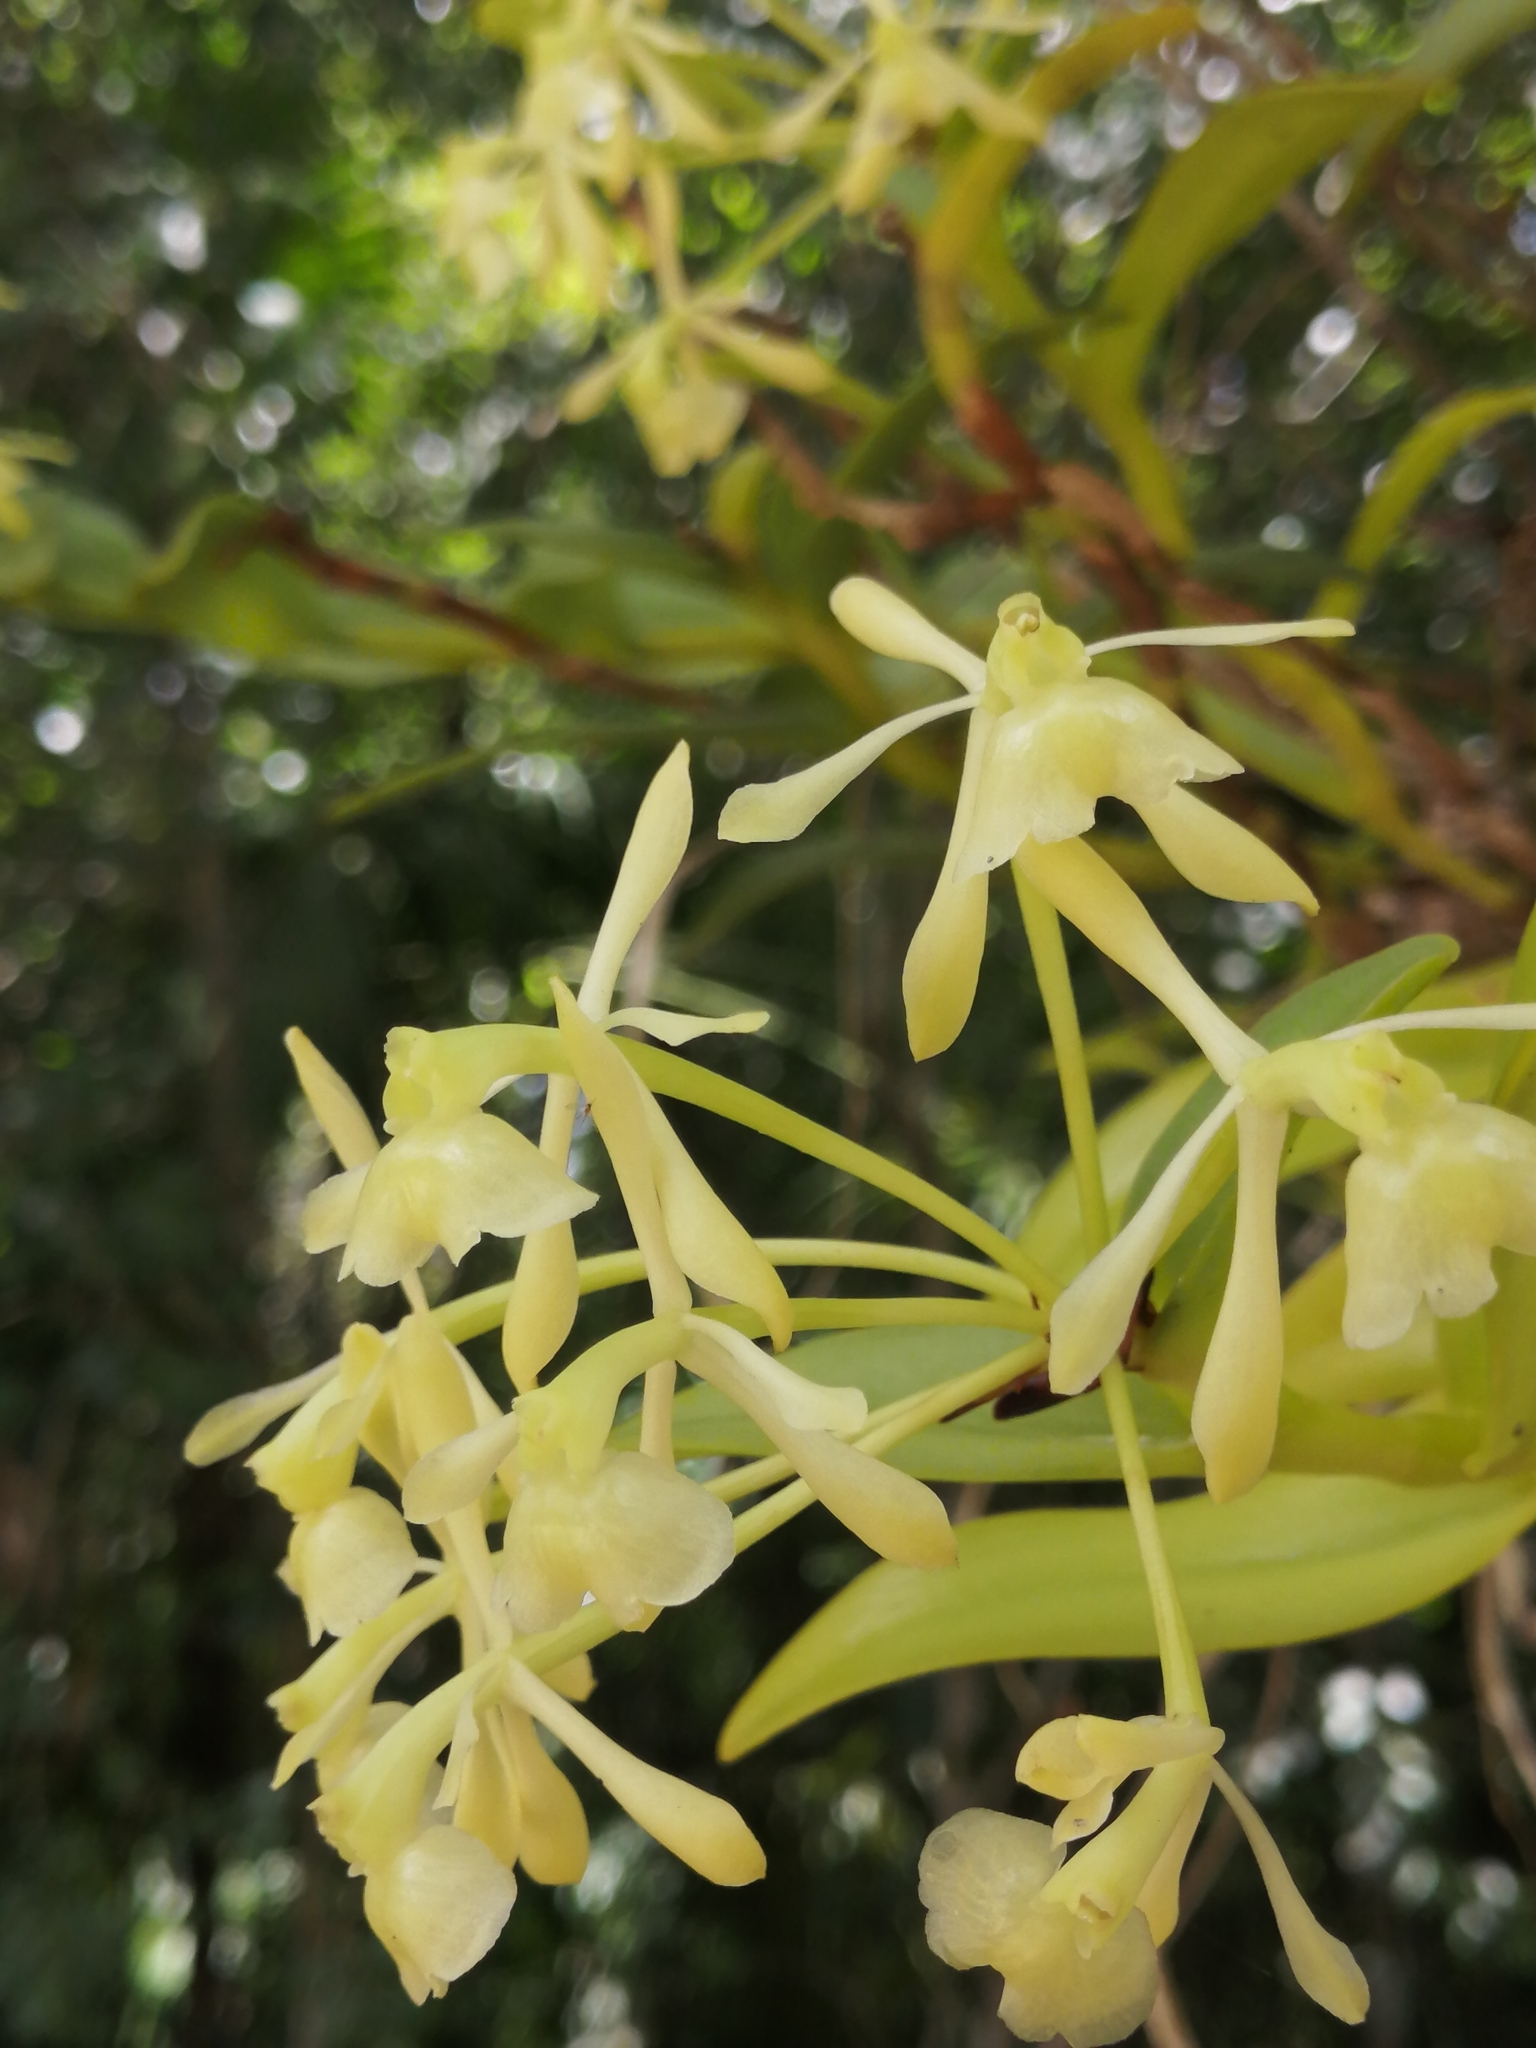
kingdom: Plantae
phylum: Tracheophyta
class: Liliopsida
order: Asparagales
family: Orchidaceae
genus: Epidendrum
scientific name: Epidendrum chlorocorymbos
